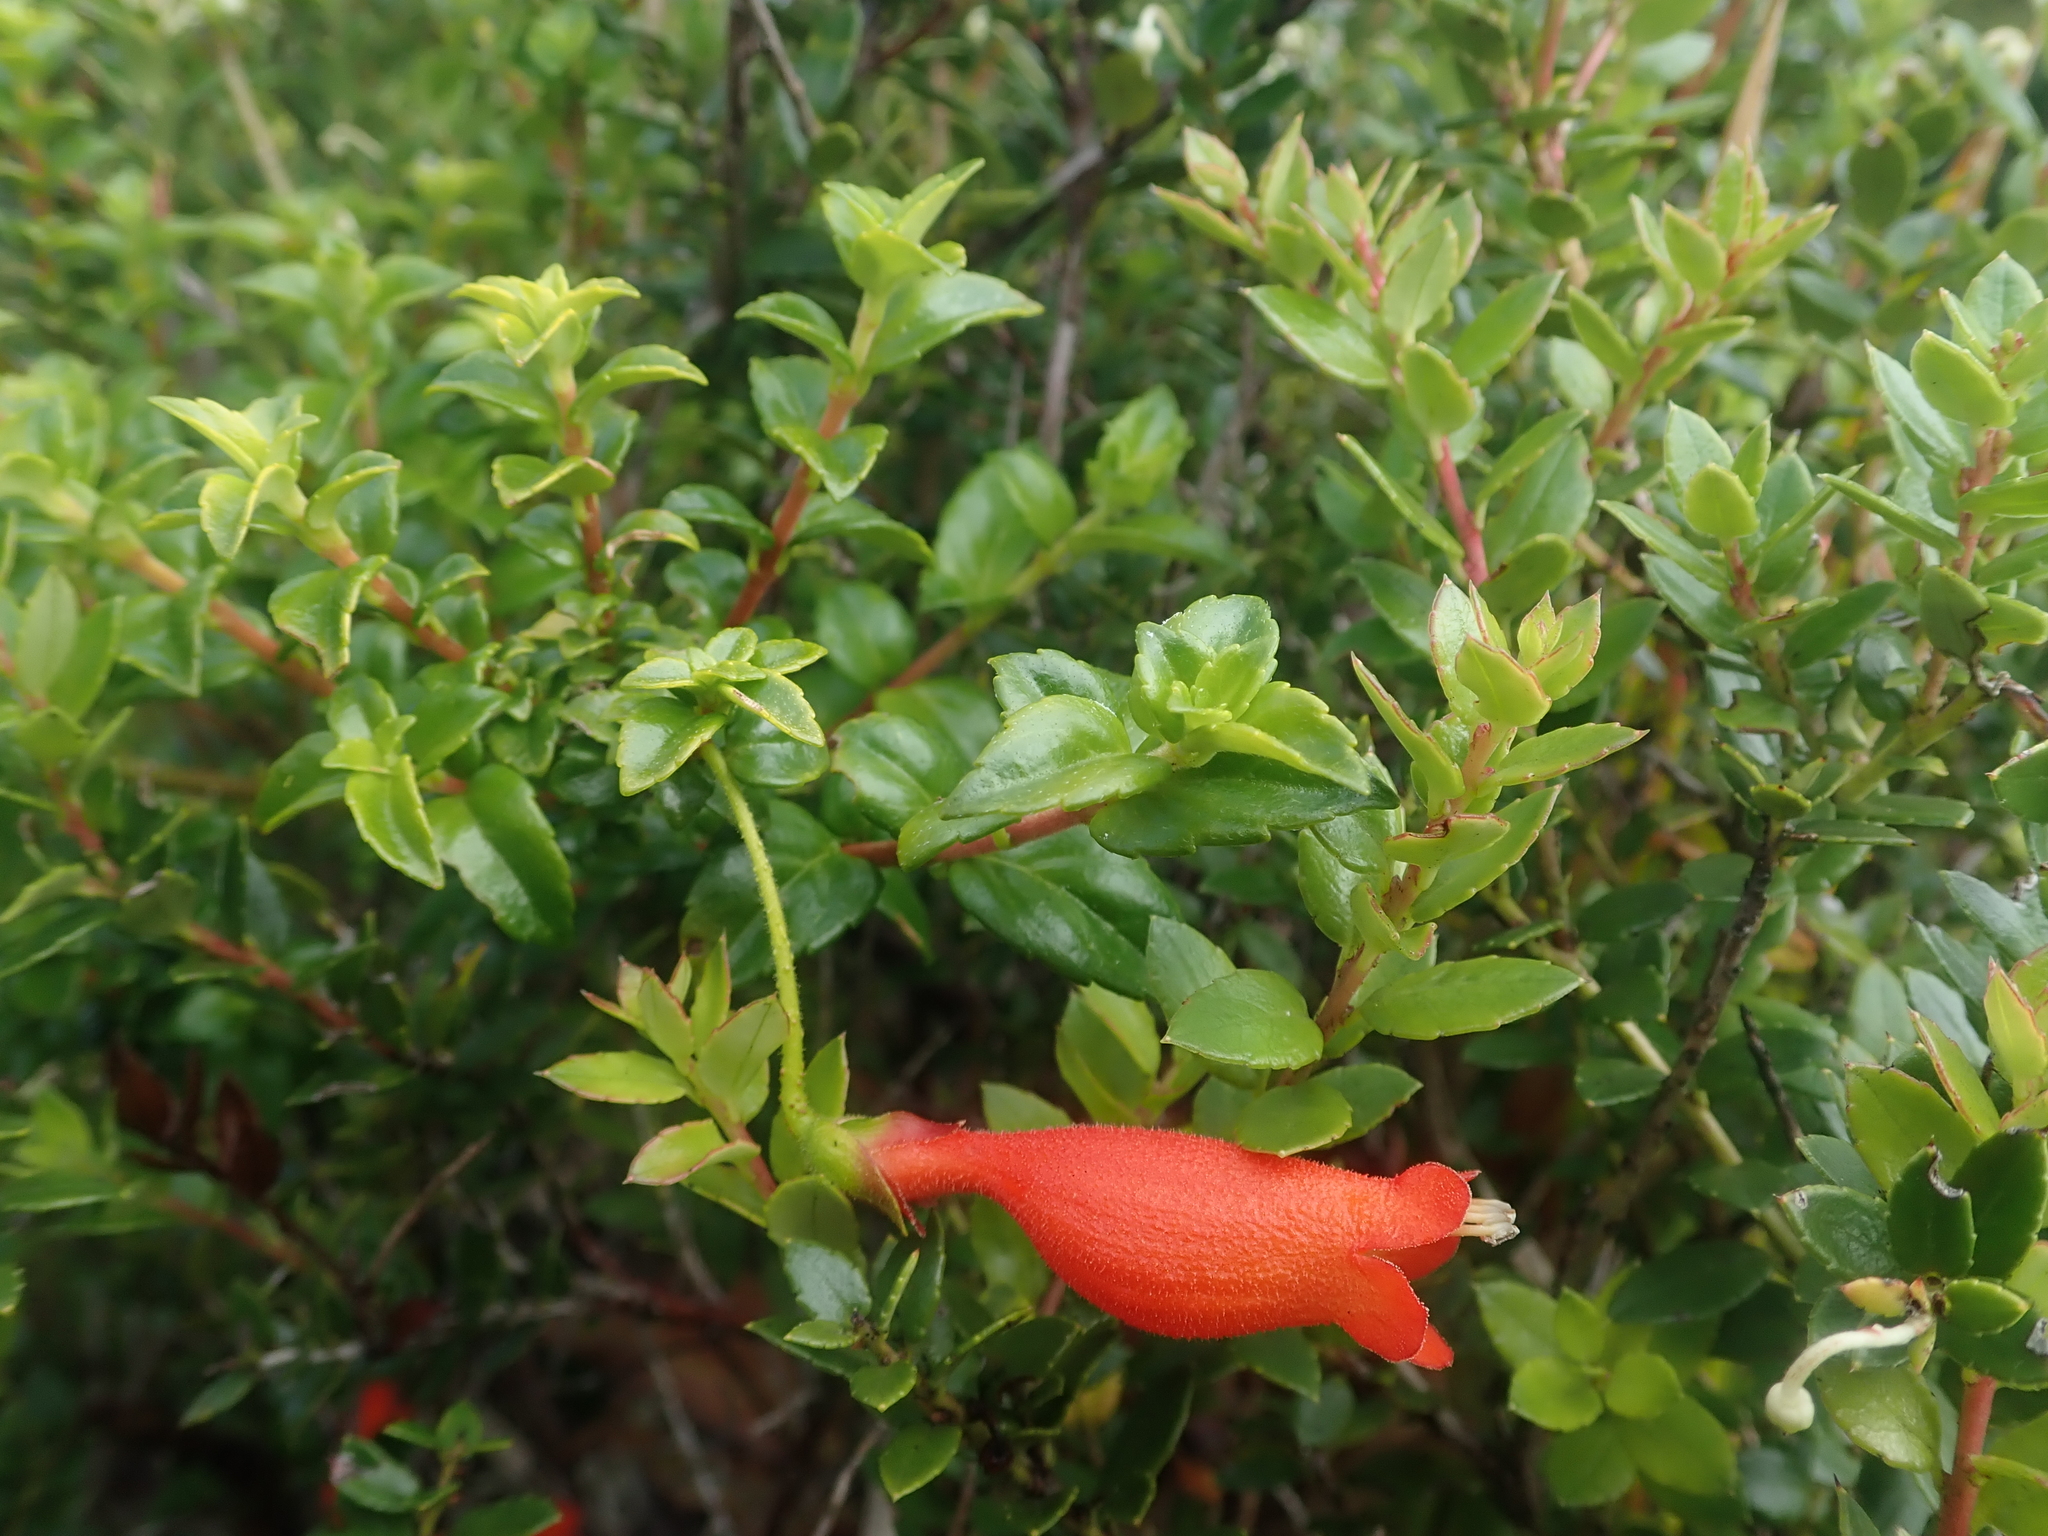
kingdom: Plantae
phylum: Tracheophyta
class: Magnoliopsida
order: Lamiales
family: Gesneriaceae
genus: Mitraria
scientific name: Mitraria coccinea
